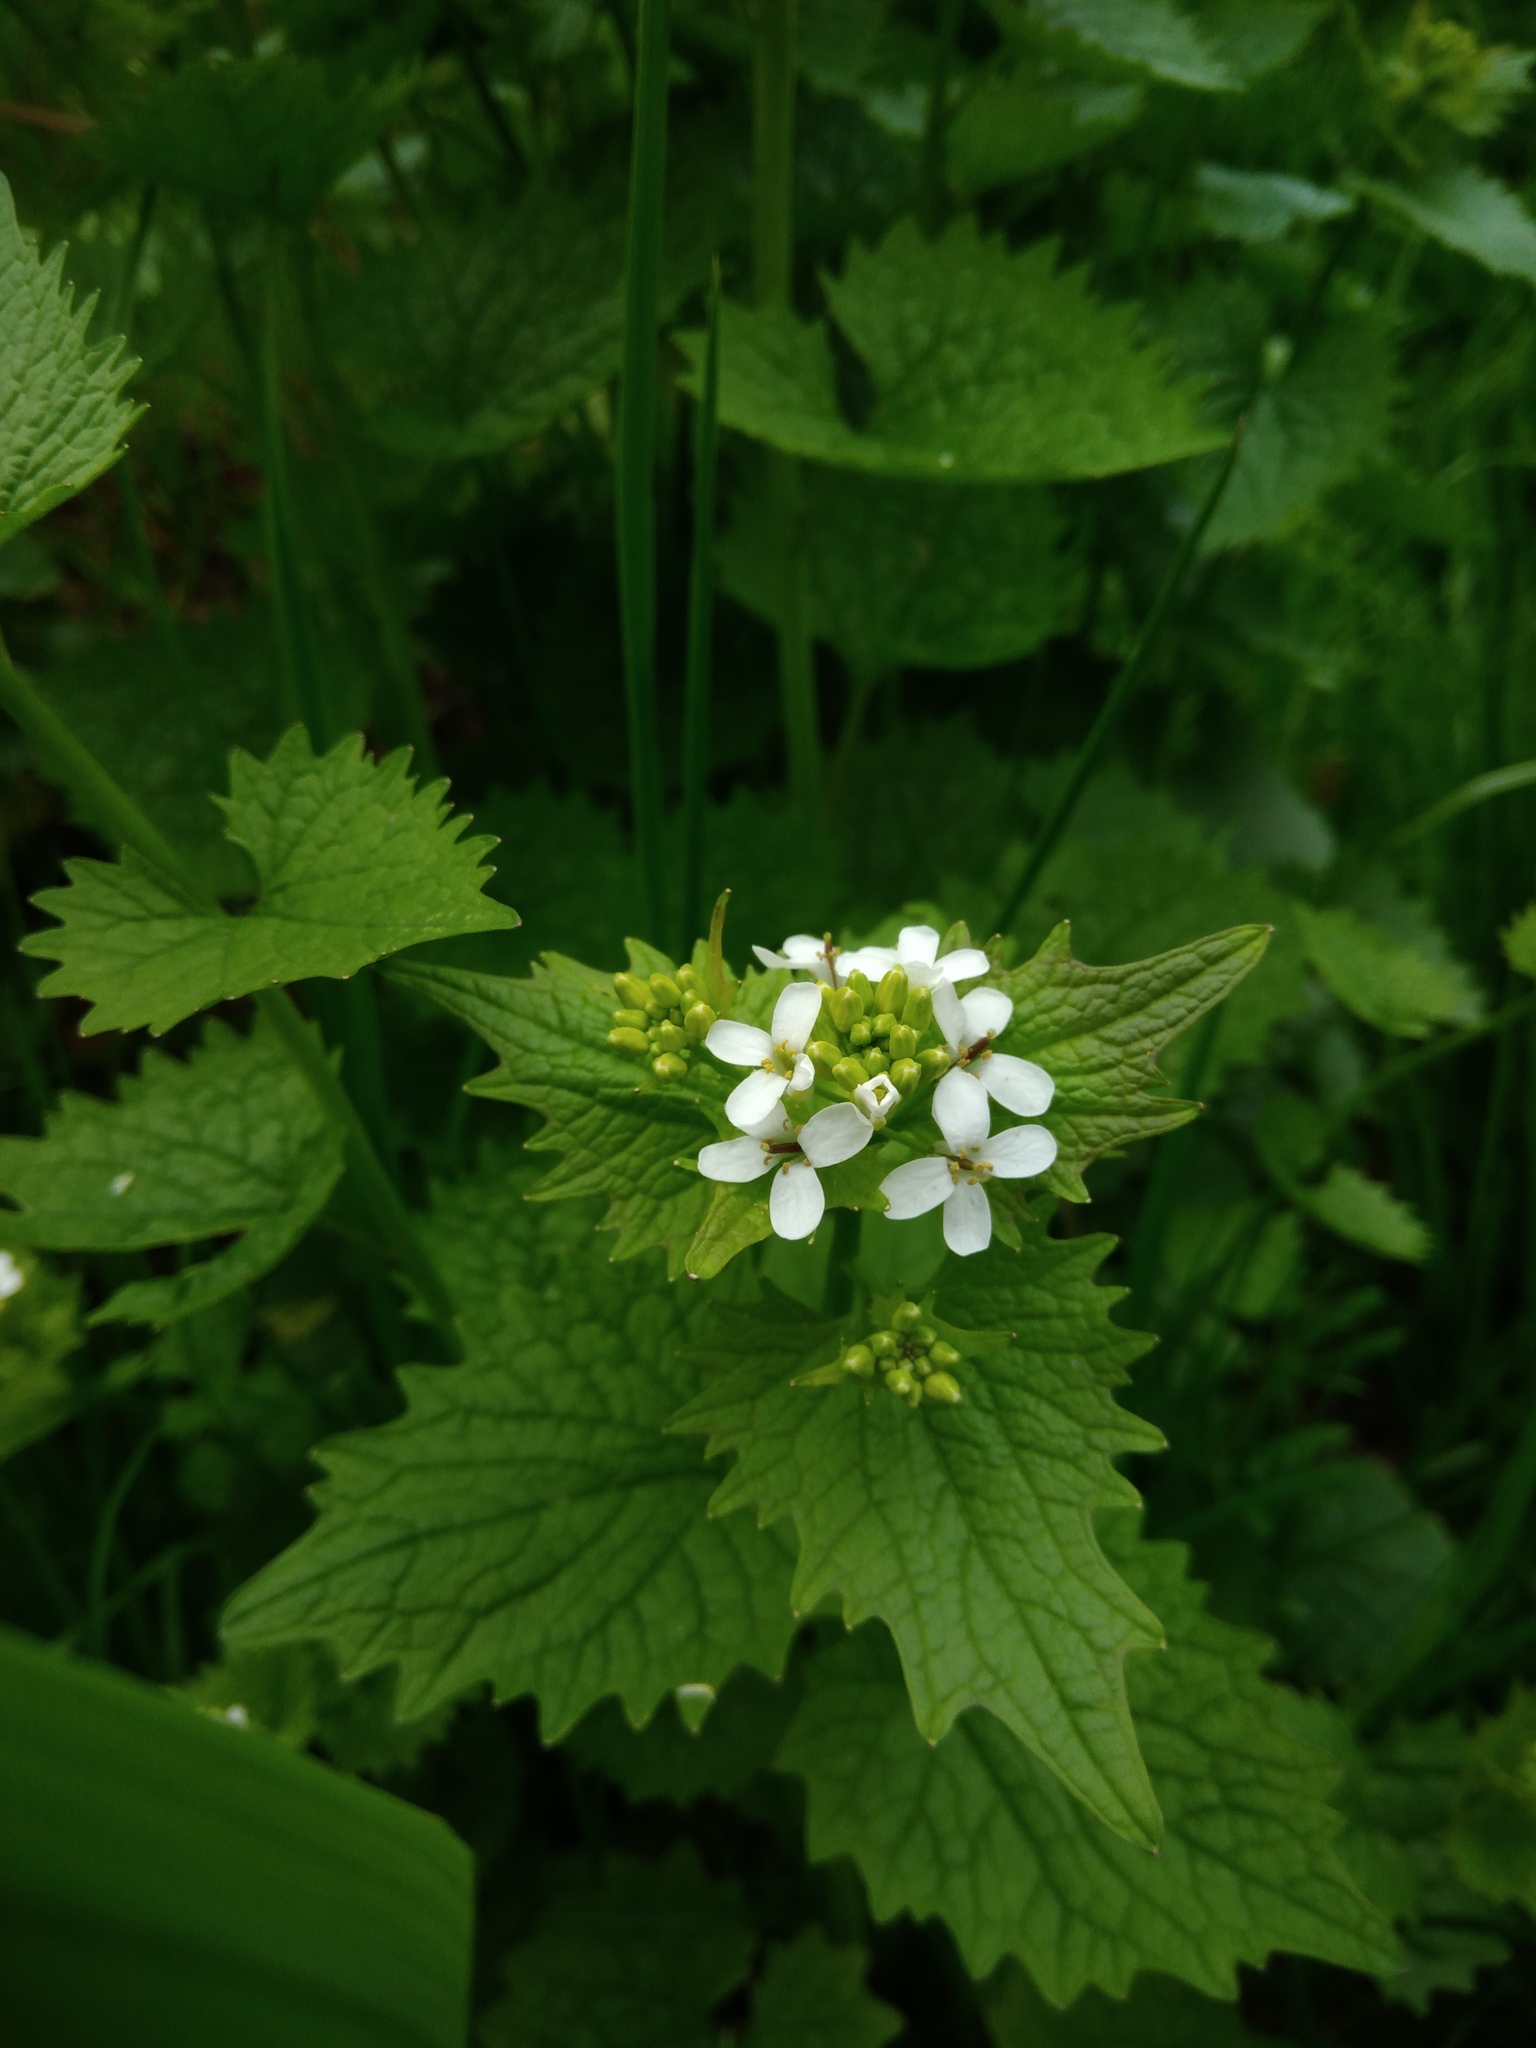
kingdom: Plantae
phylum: Tracheophyta
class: Magnoliopsida
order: Brassicales
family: Brassicaceae
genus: Alliaria
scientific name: Alliaria petiolata
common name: Garlic mustard
